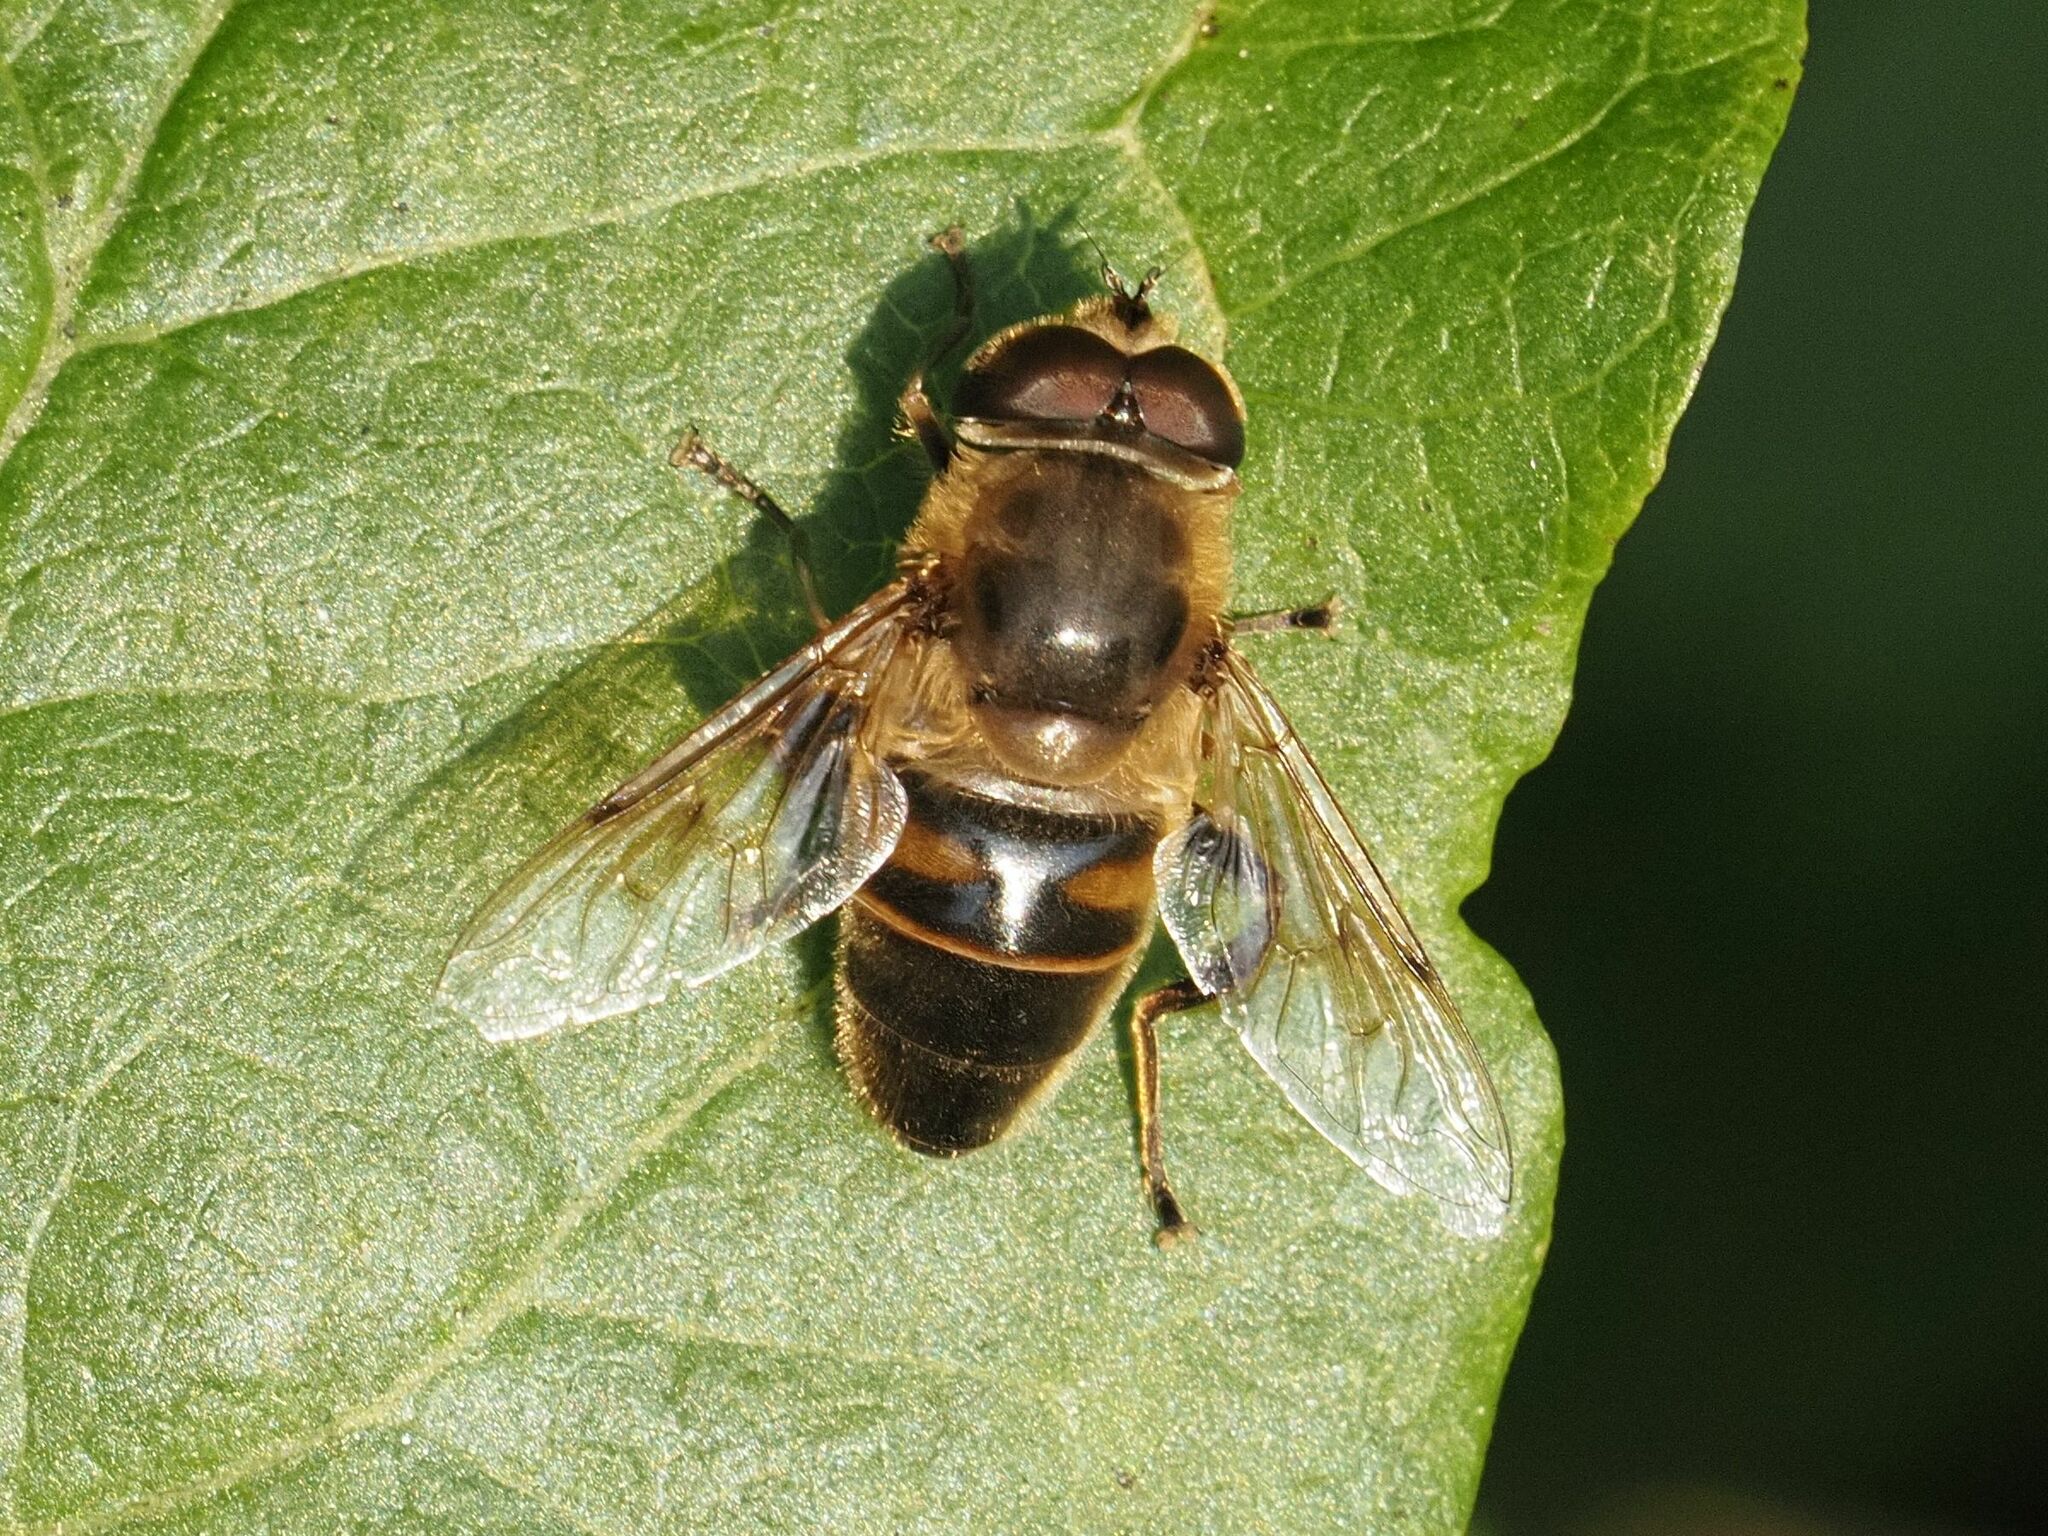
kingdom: Animalia
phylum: Arthropoda
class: Insecta
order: Diptera
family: Syrphidae
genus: Eristalis
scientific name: Eristalis tenax
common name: Drone fly
